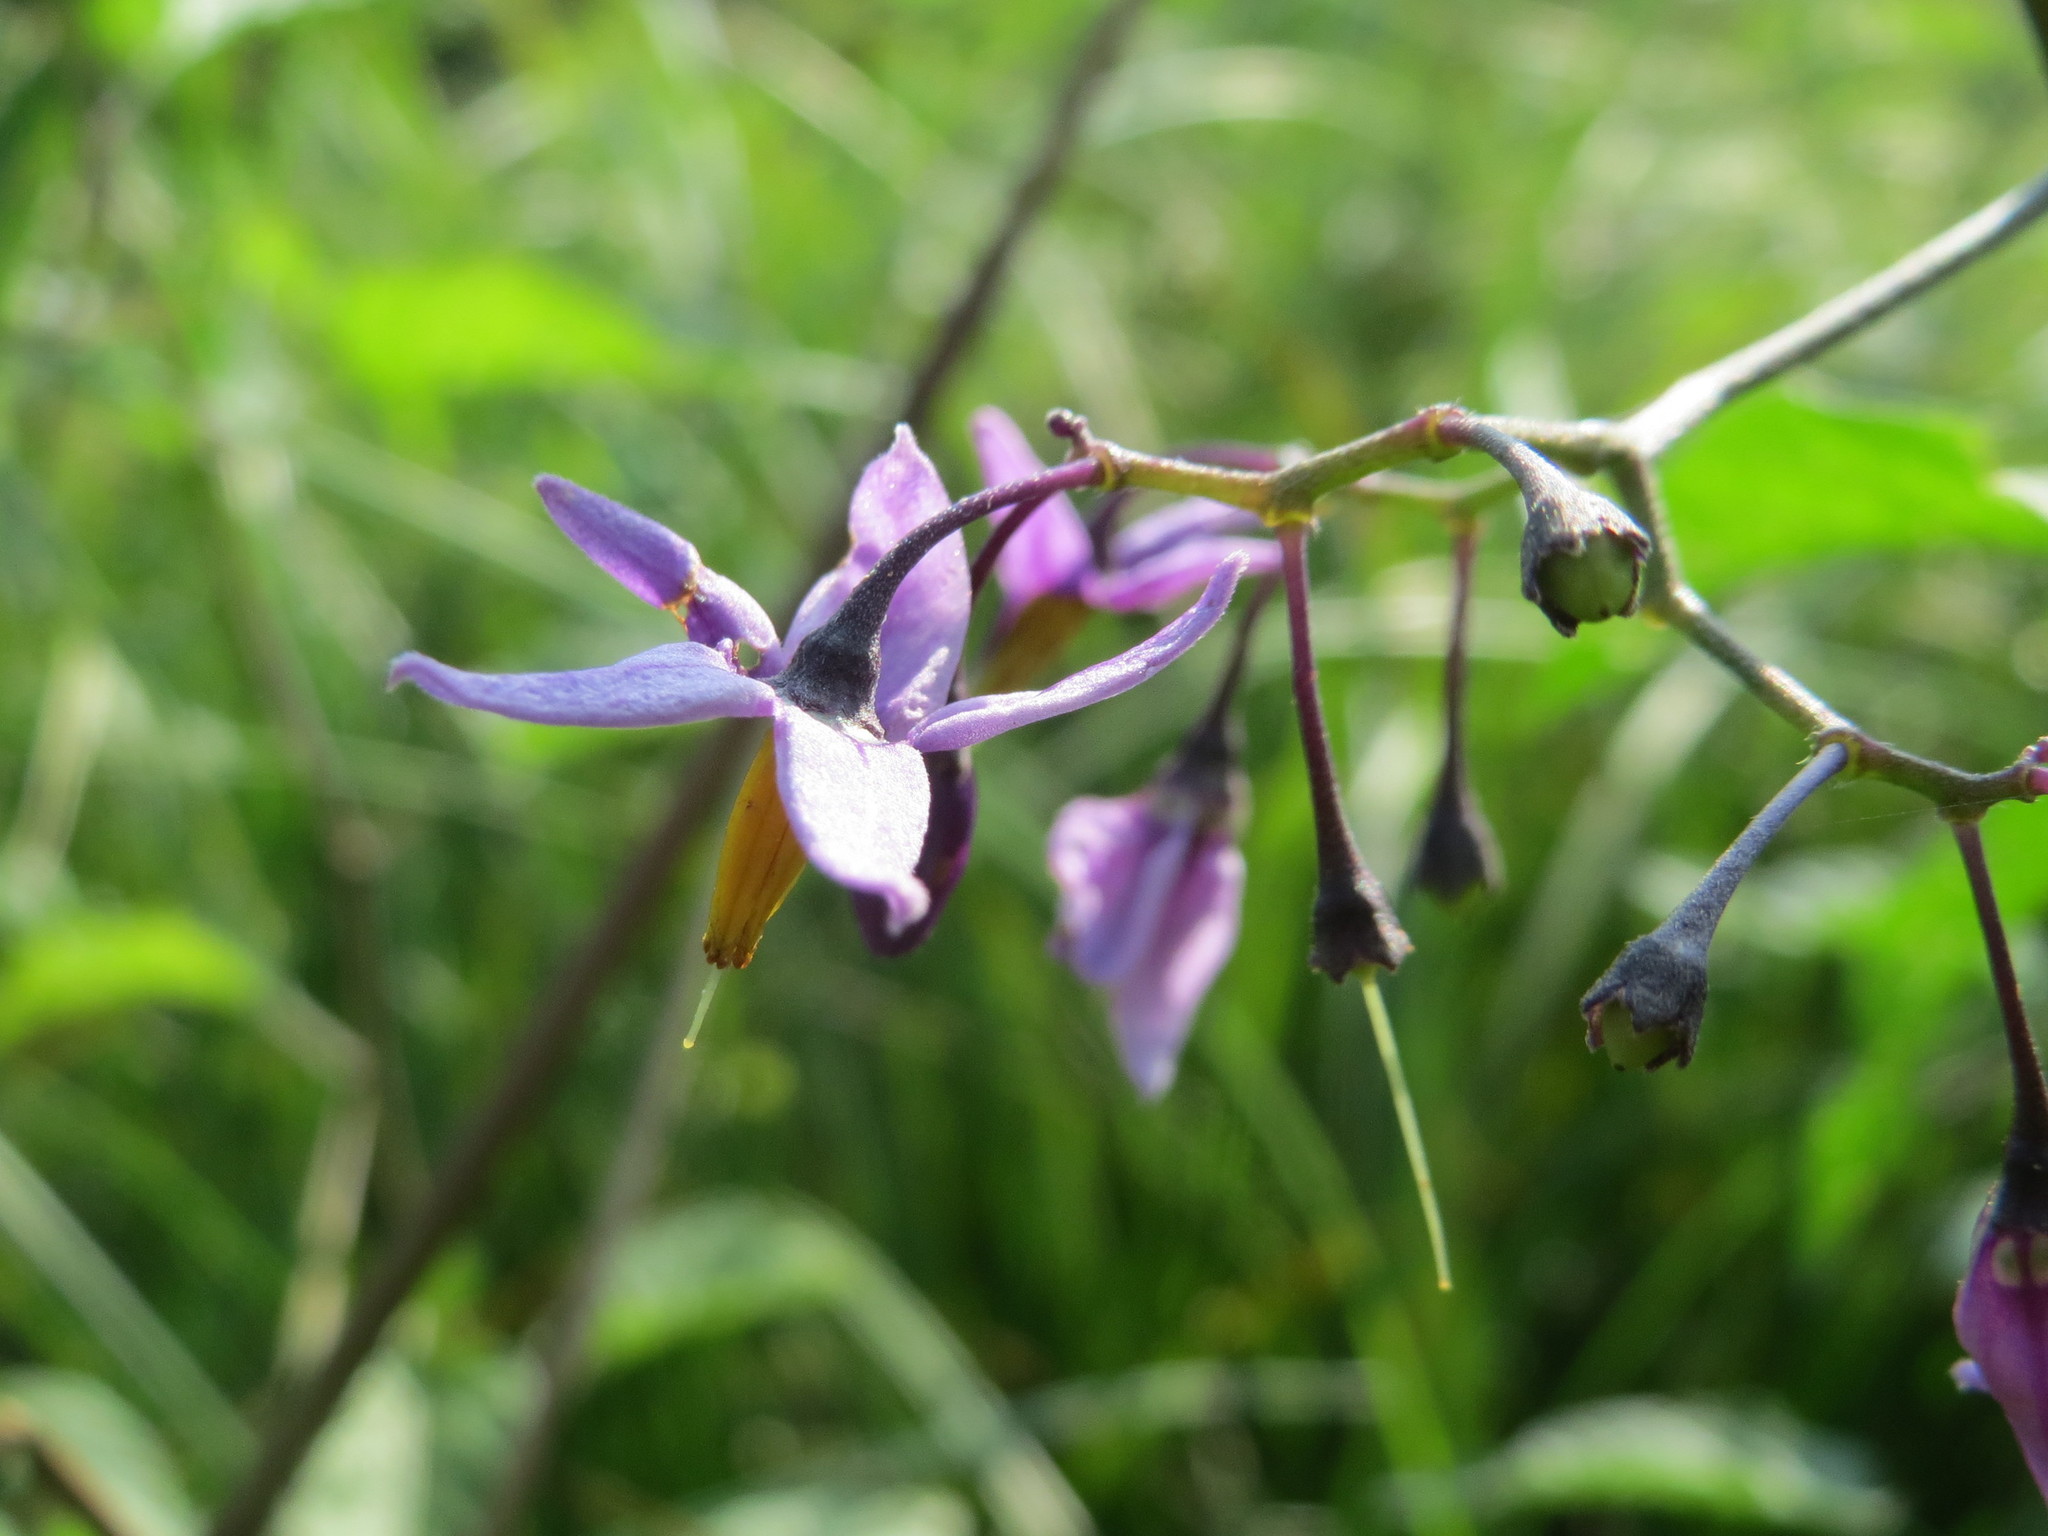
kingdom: Plantae
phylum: Tracheophyta
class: Magnoliopsida
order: Solanales
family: Solanaceae
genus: Solanum
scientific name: Solanum dulcamara
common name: Climbing nightshade
